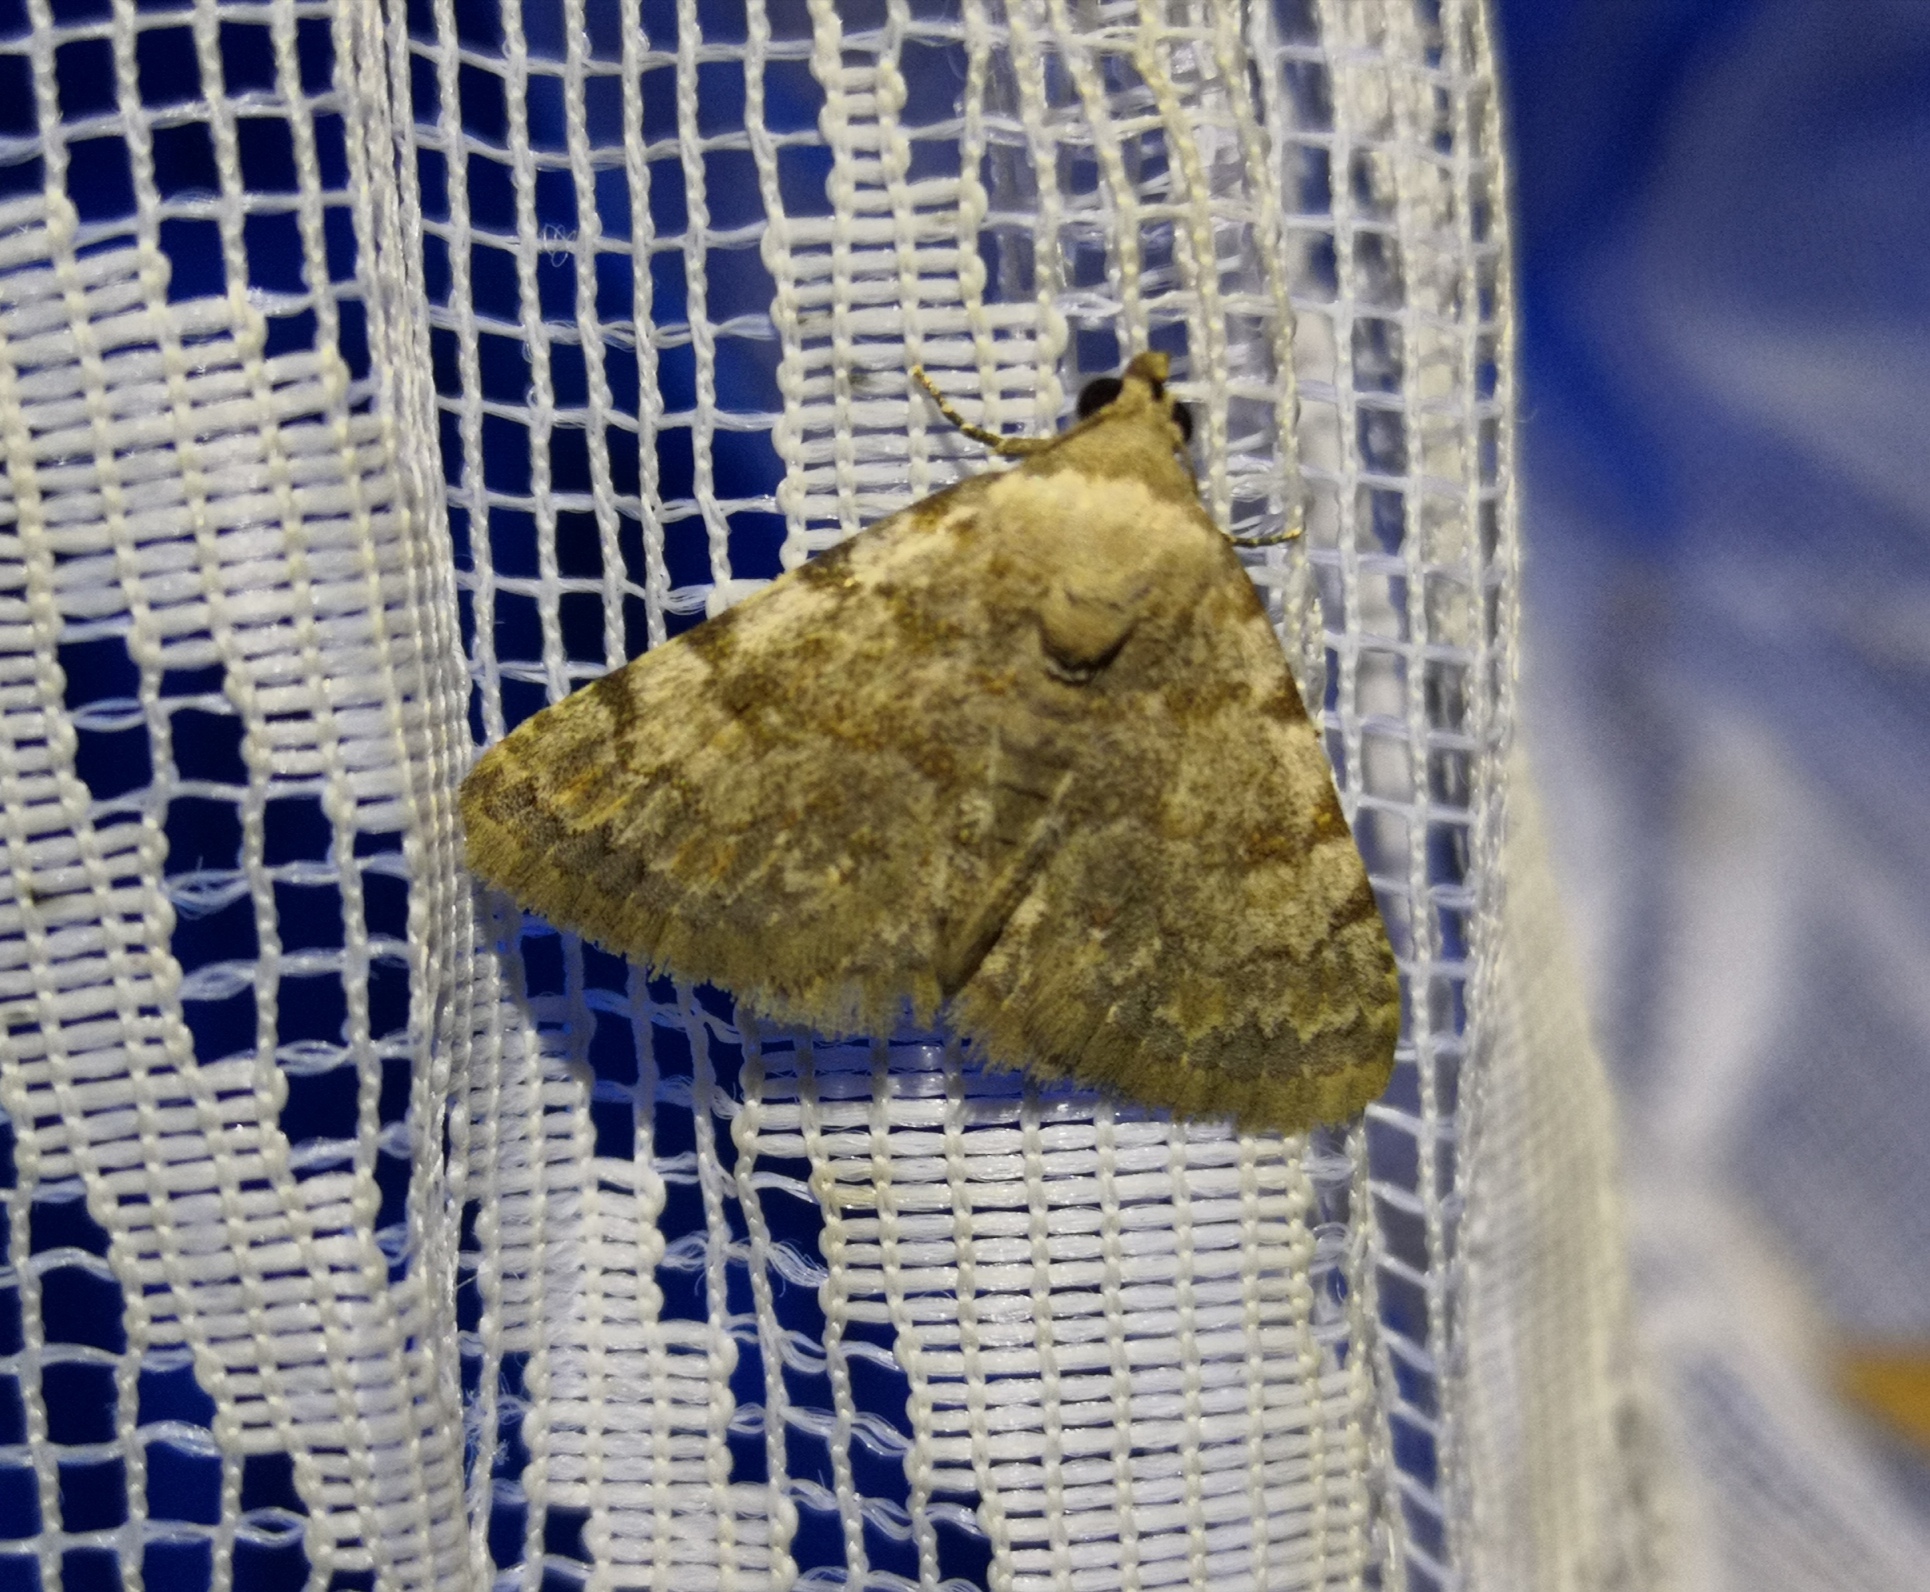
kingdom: Animalia
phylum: Arthropoda
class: Insecta
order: Lepidoptera
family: Noctuidae
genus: Metachrostis
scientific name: Metachrostis velocior
